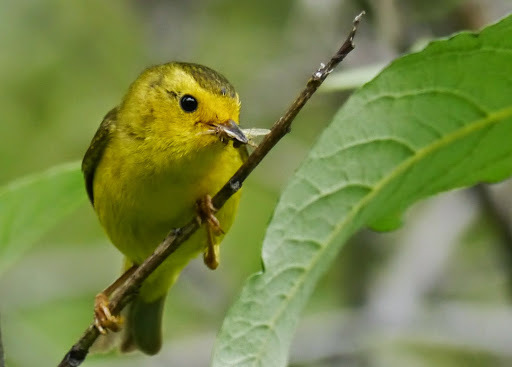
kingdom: Animalia
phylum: Chordata
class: Aves
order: Passeriformes
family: Parulidae
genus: Cardellina
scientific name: Cardellina pusilla
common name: Wilson's warbler
